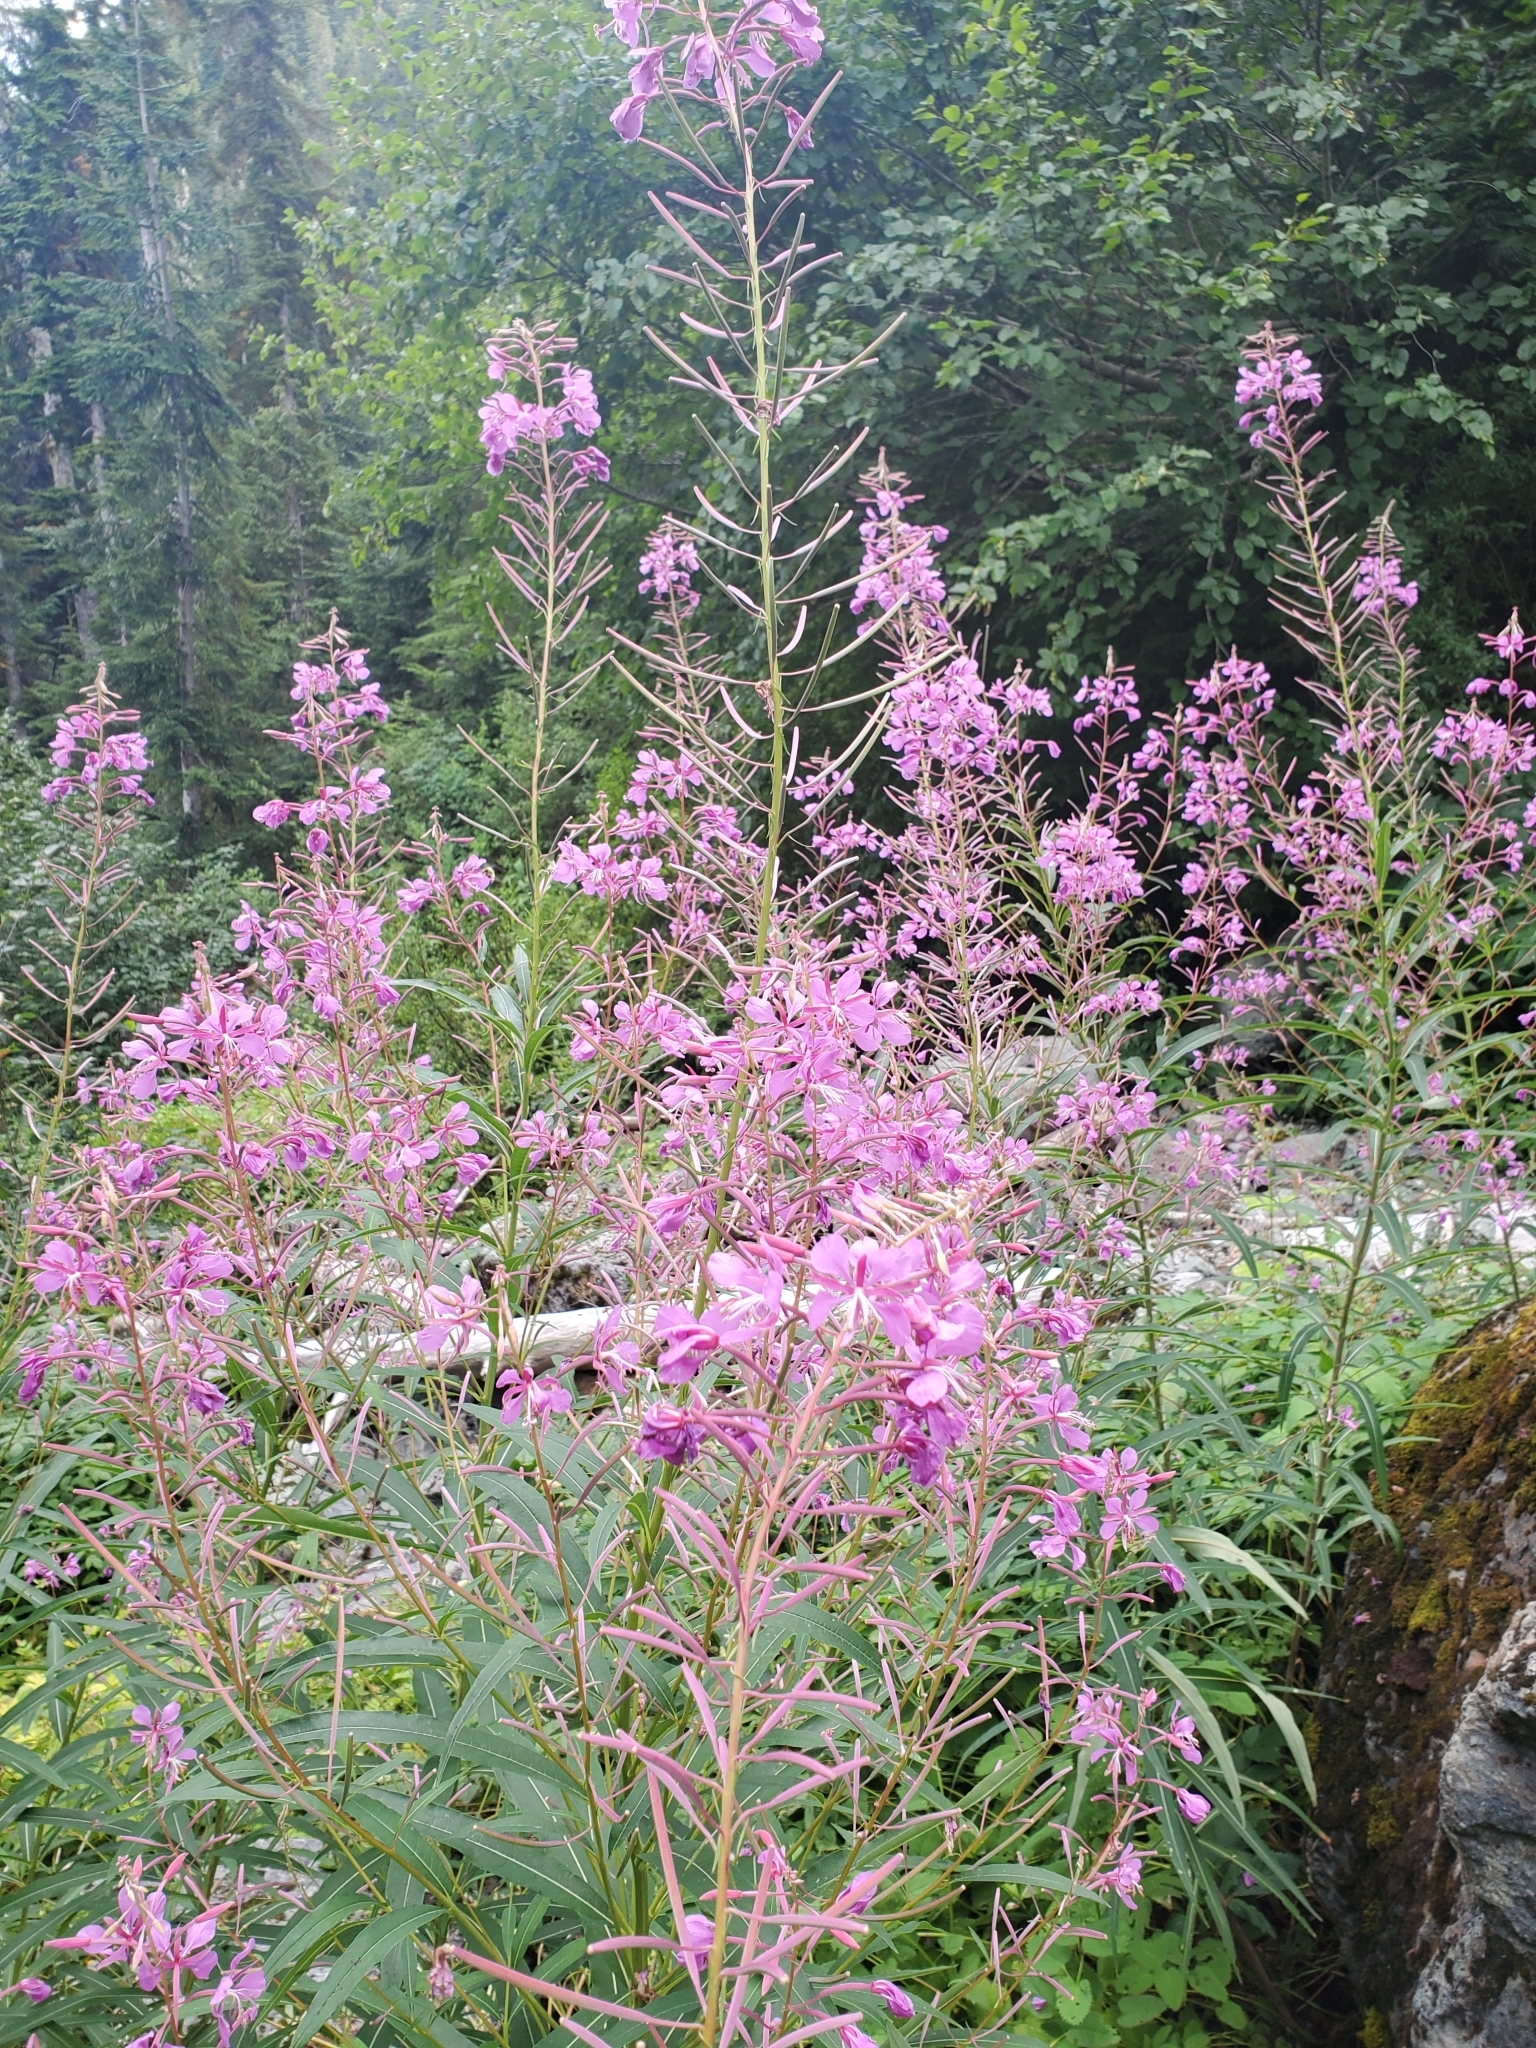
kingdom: Plantae
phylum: Tracheophyta
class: Magnoliopsida
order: Myrtales
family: Onagraceae
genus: Chamaenerion
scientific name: Chamaenerion angustifolium
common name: Fireweed
